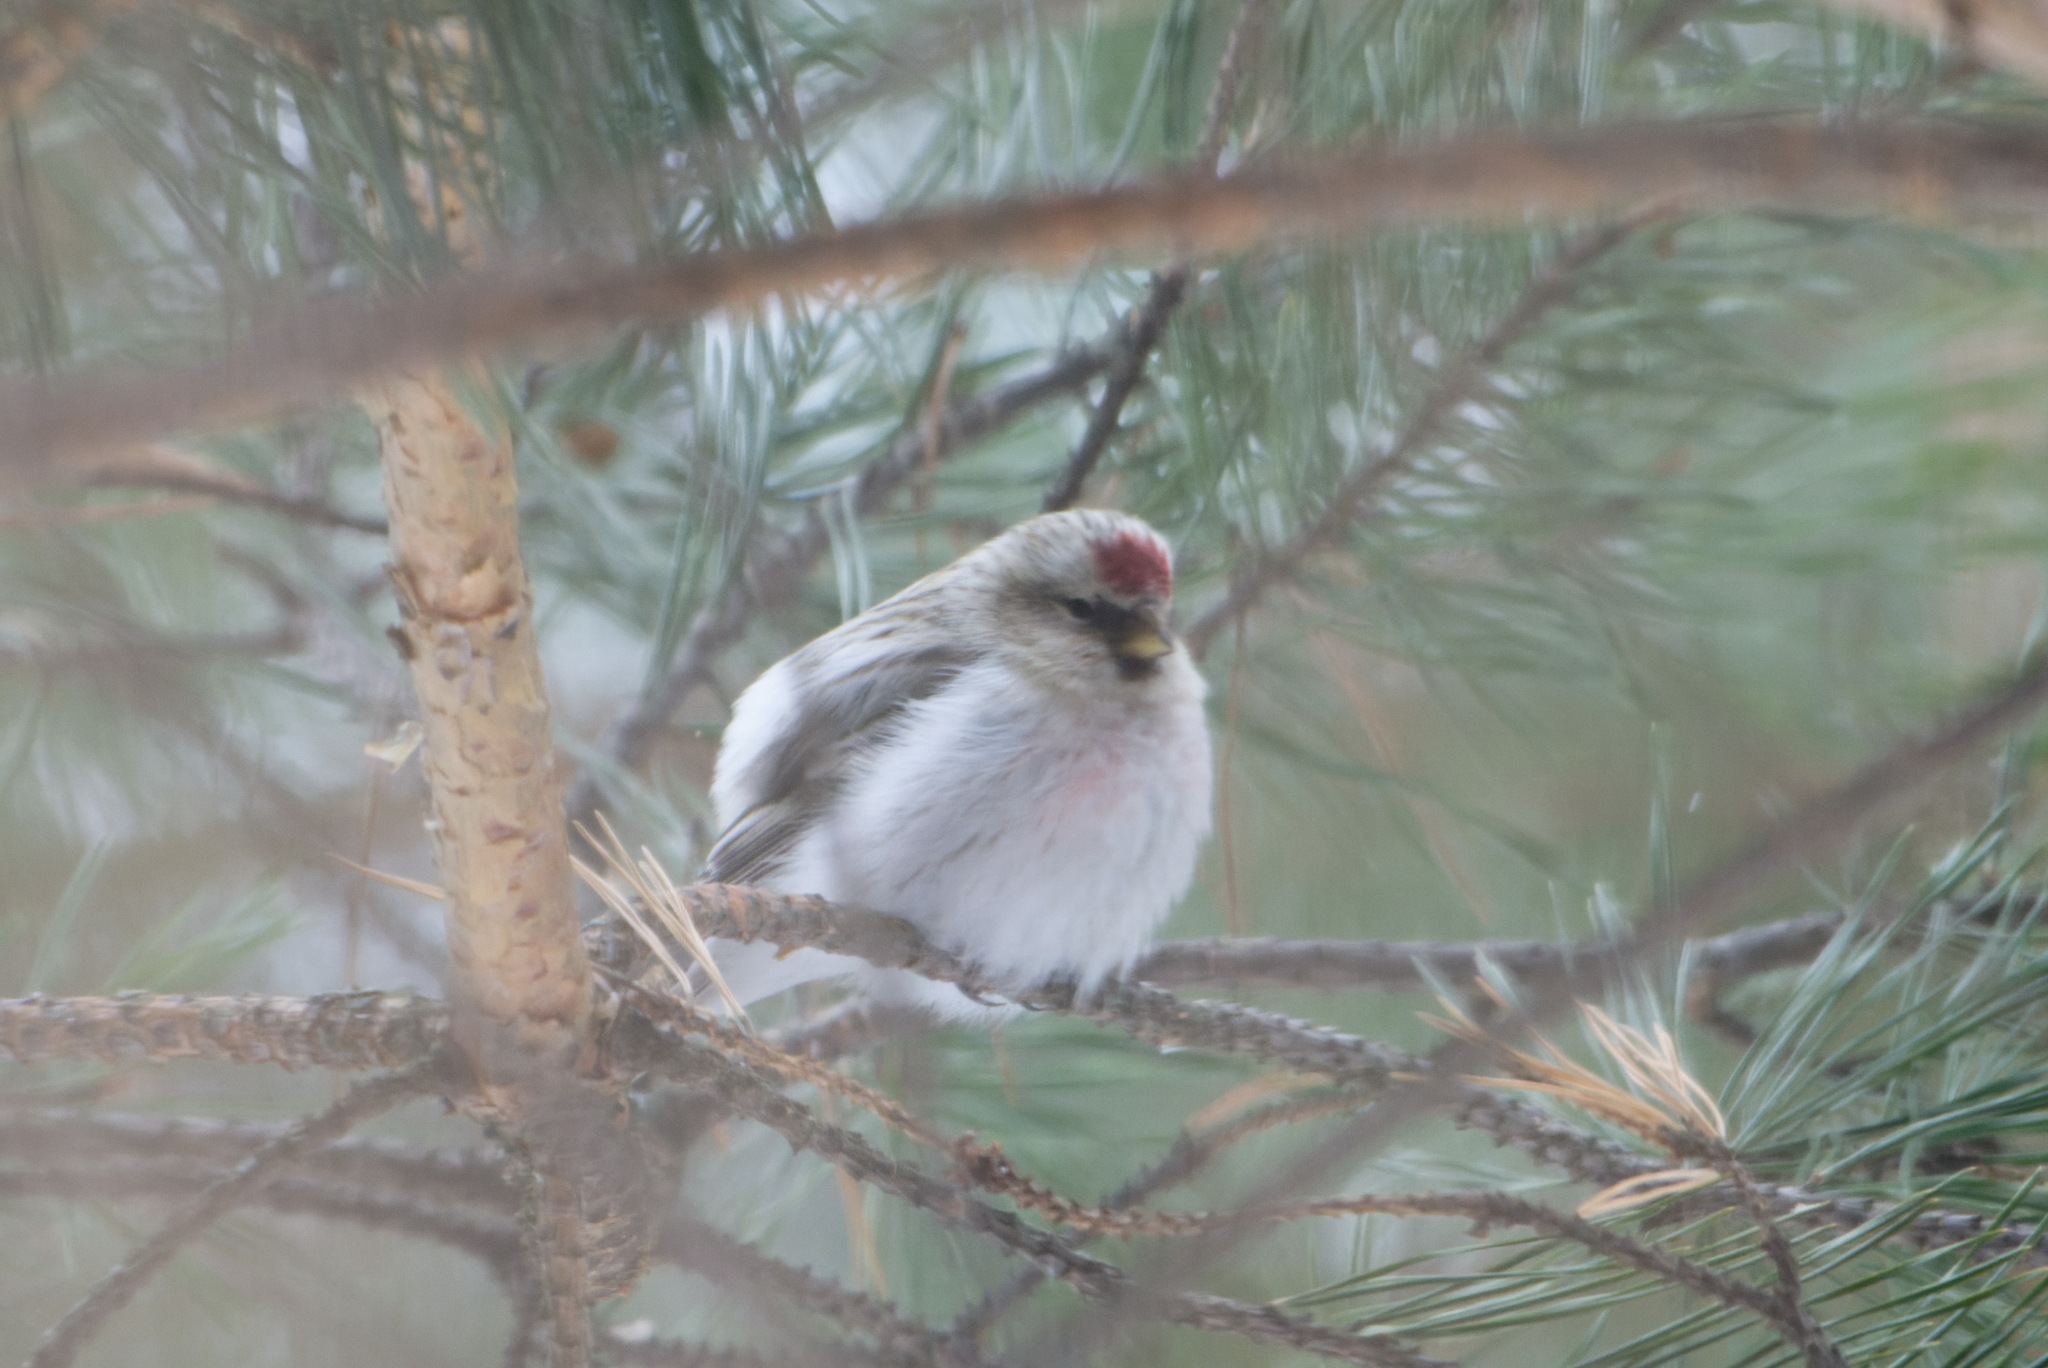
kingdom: Animalia
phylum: Chordata
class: Aves
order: Passeriformes
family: Fringillidae
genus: Acanthis
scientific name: Acanthis hornemanni
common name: Arctic redpoll
